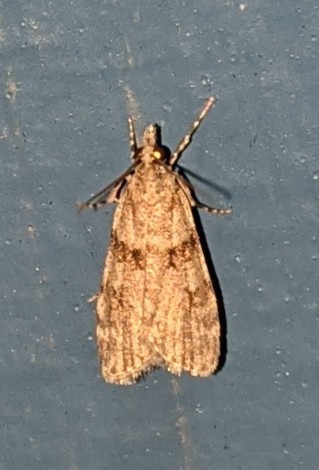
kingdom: Animalia
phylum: Arthropoda
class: Insecta
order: Lepidoptera
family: Crambidae
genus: Scoparia
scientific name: Scoparia biplagialis
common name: Double-striped scoparia moth
